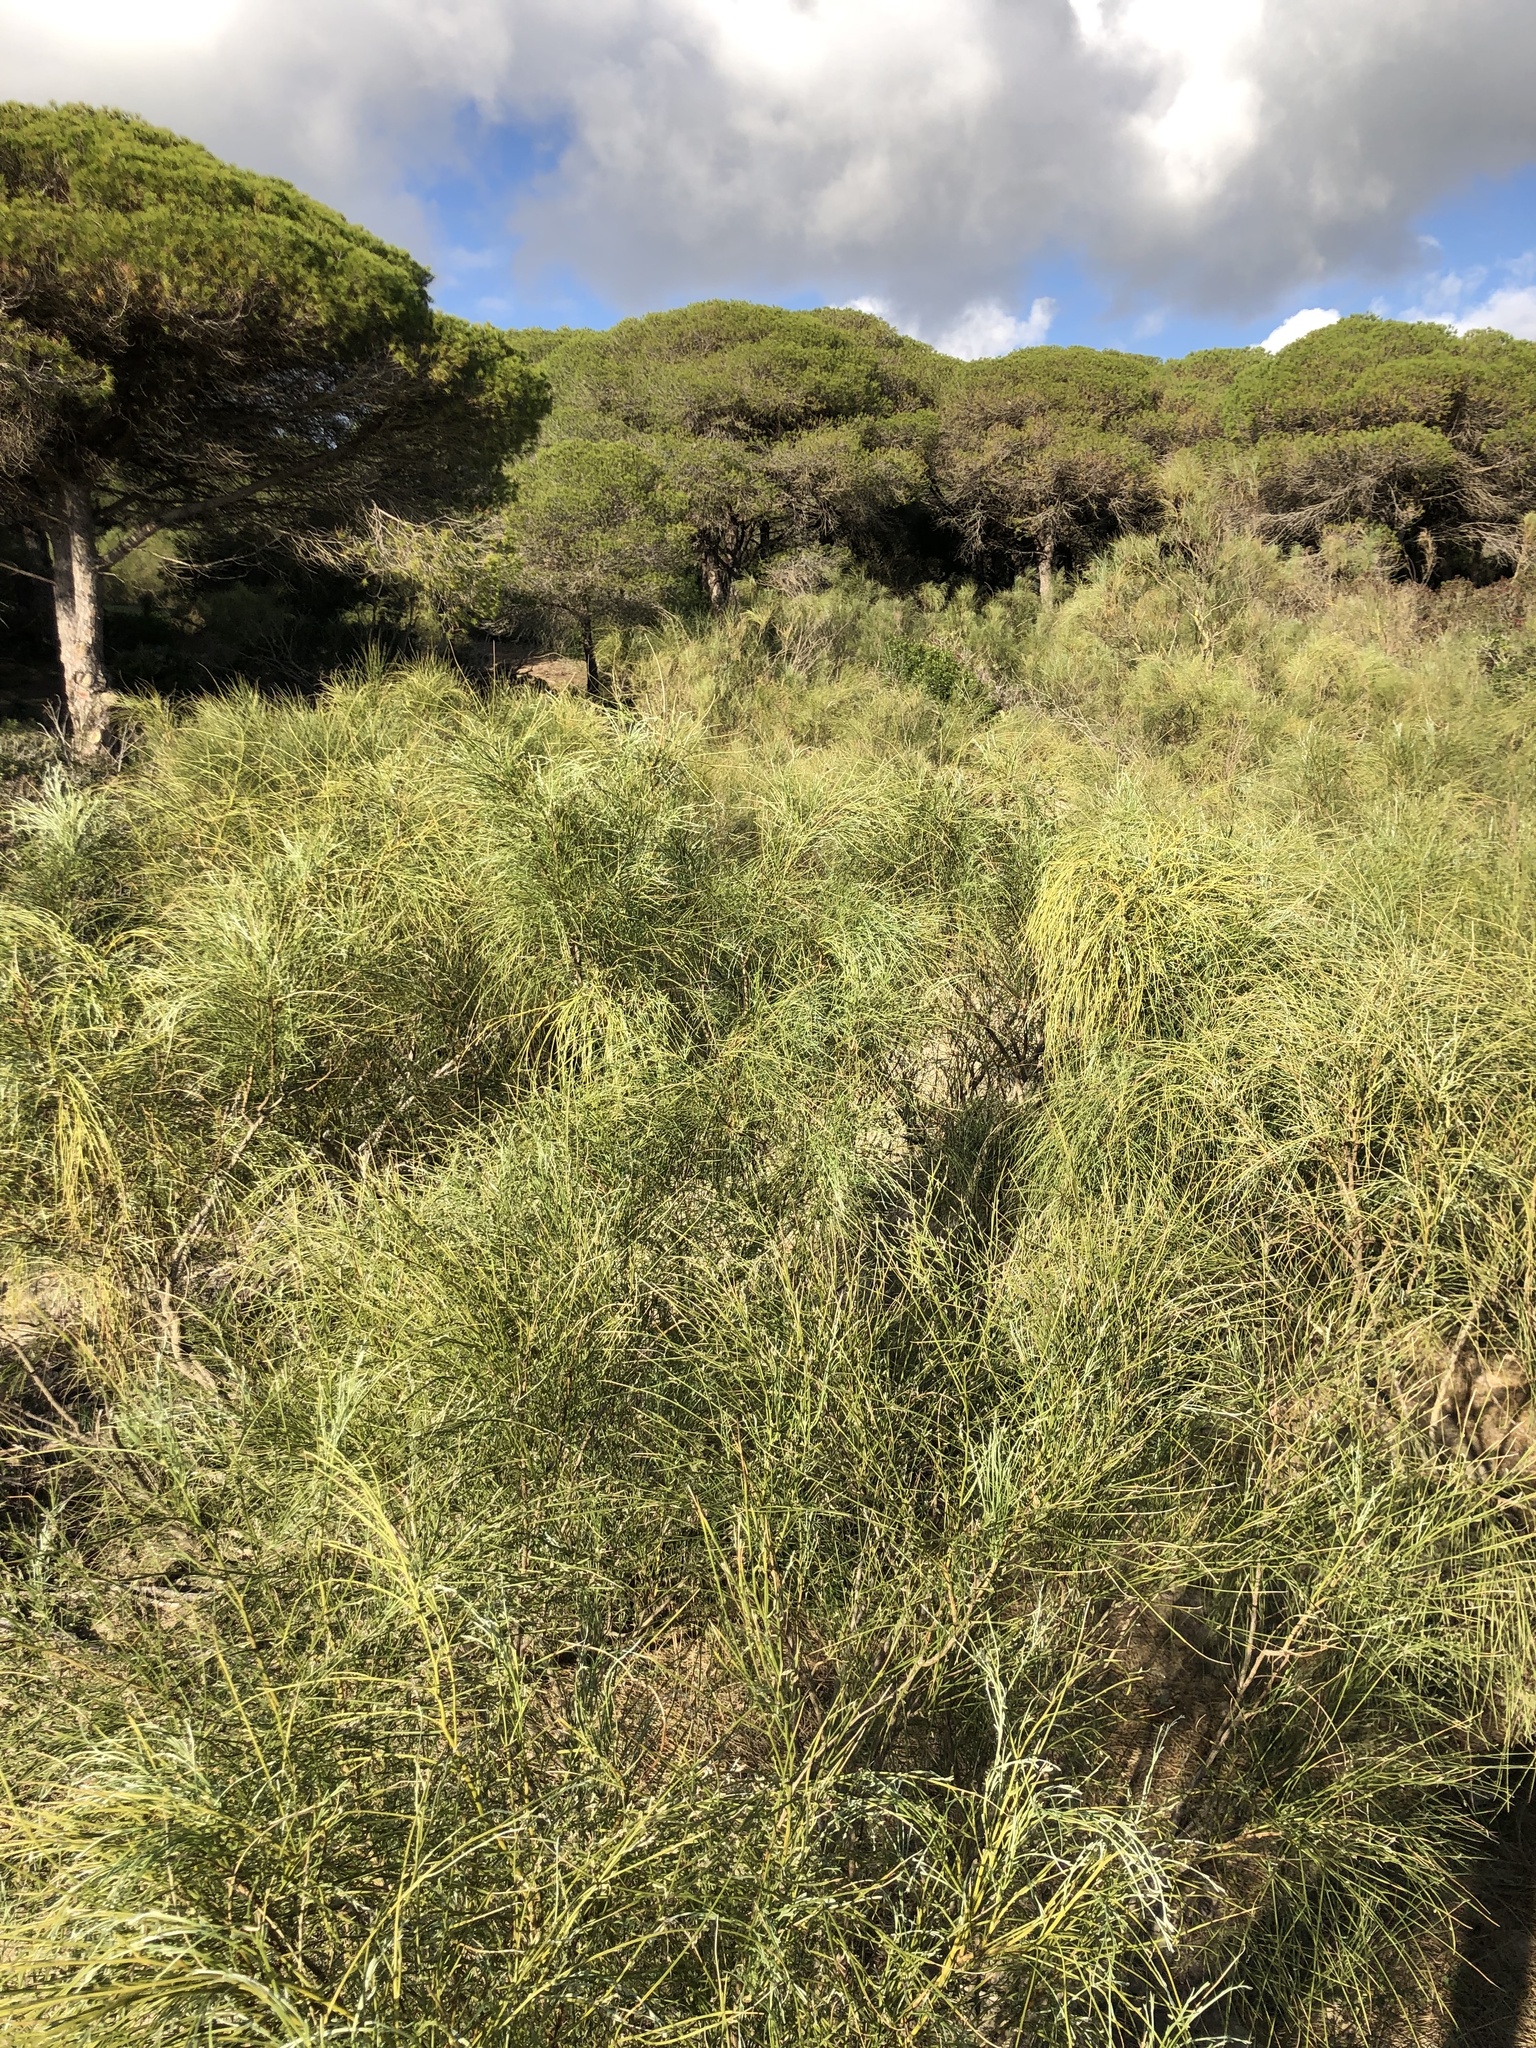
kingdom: Plantae
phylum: Tracheophyta
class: Magnoliopsida
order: Fabales
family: Fabaceae
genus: Retama
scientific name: Retama monosperma
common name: Bridal broom
